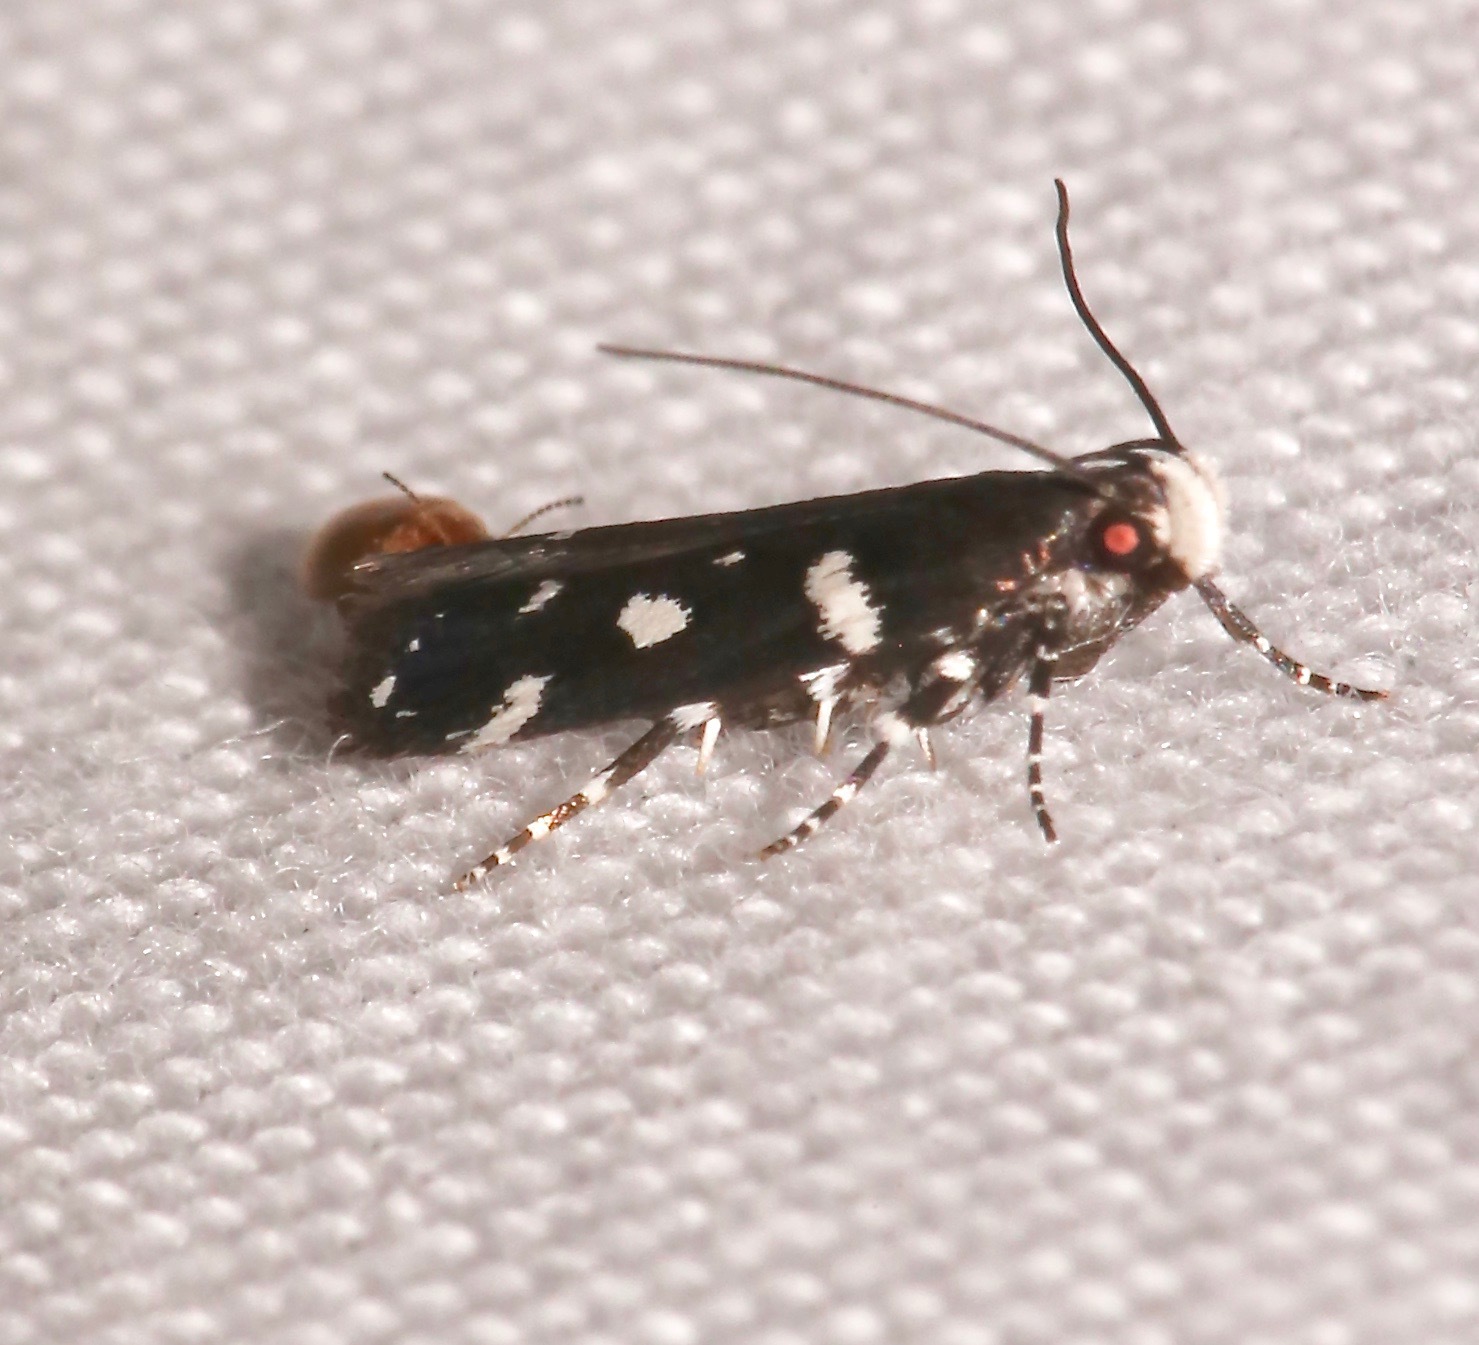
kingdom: Animalia
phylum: Arthropoda
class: Insecta
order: Lepidoptera
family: Gelechiidae
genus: Aroga
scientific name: Aroga compositella
